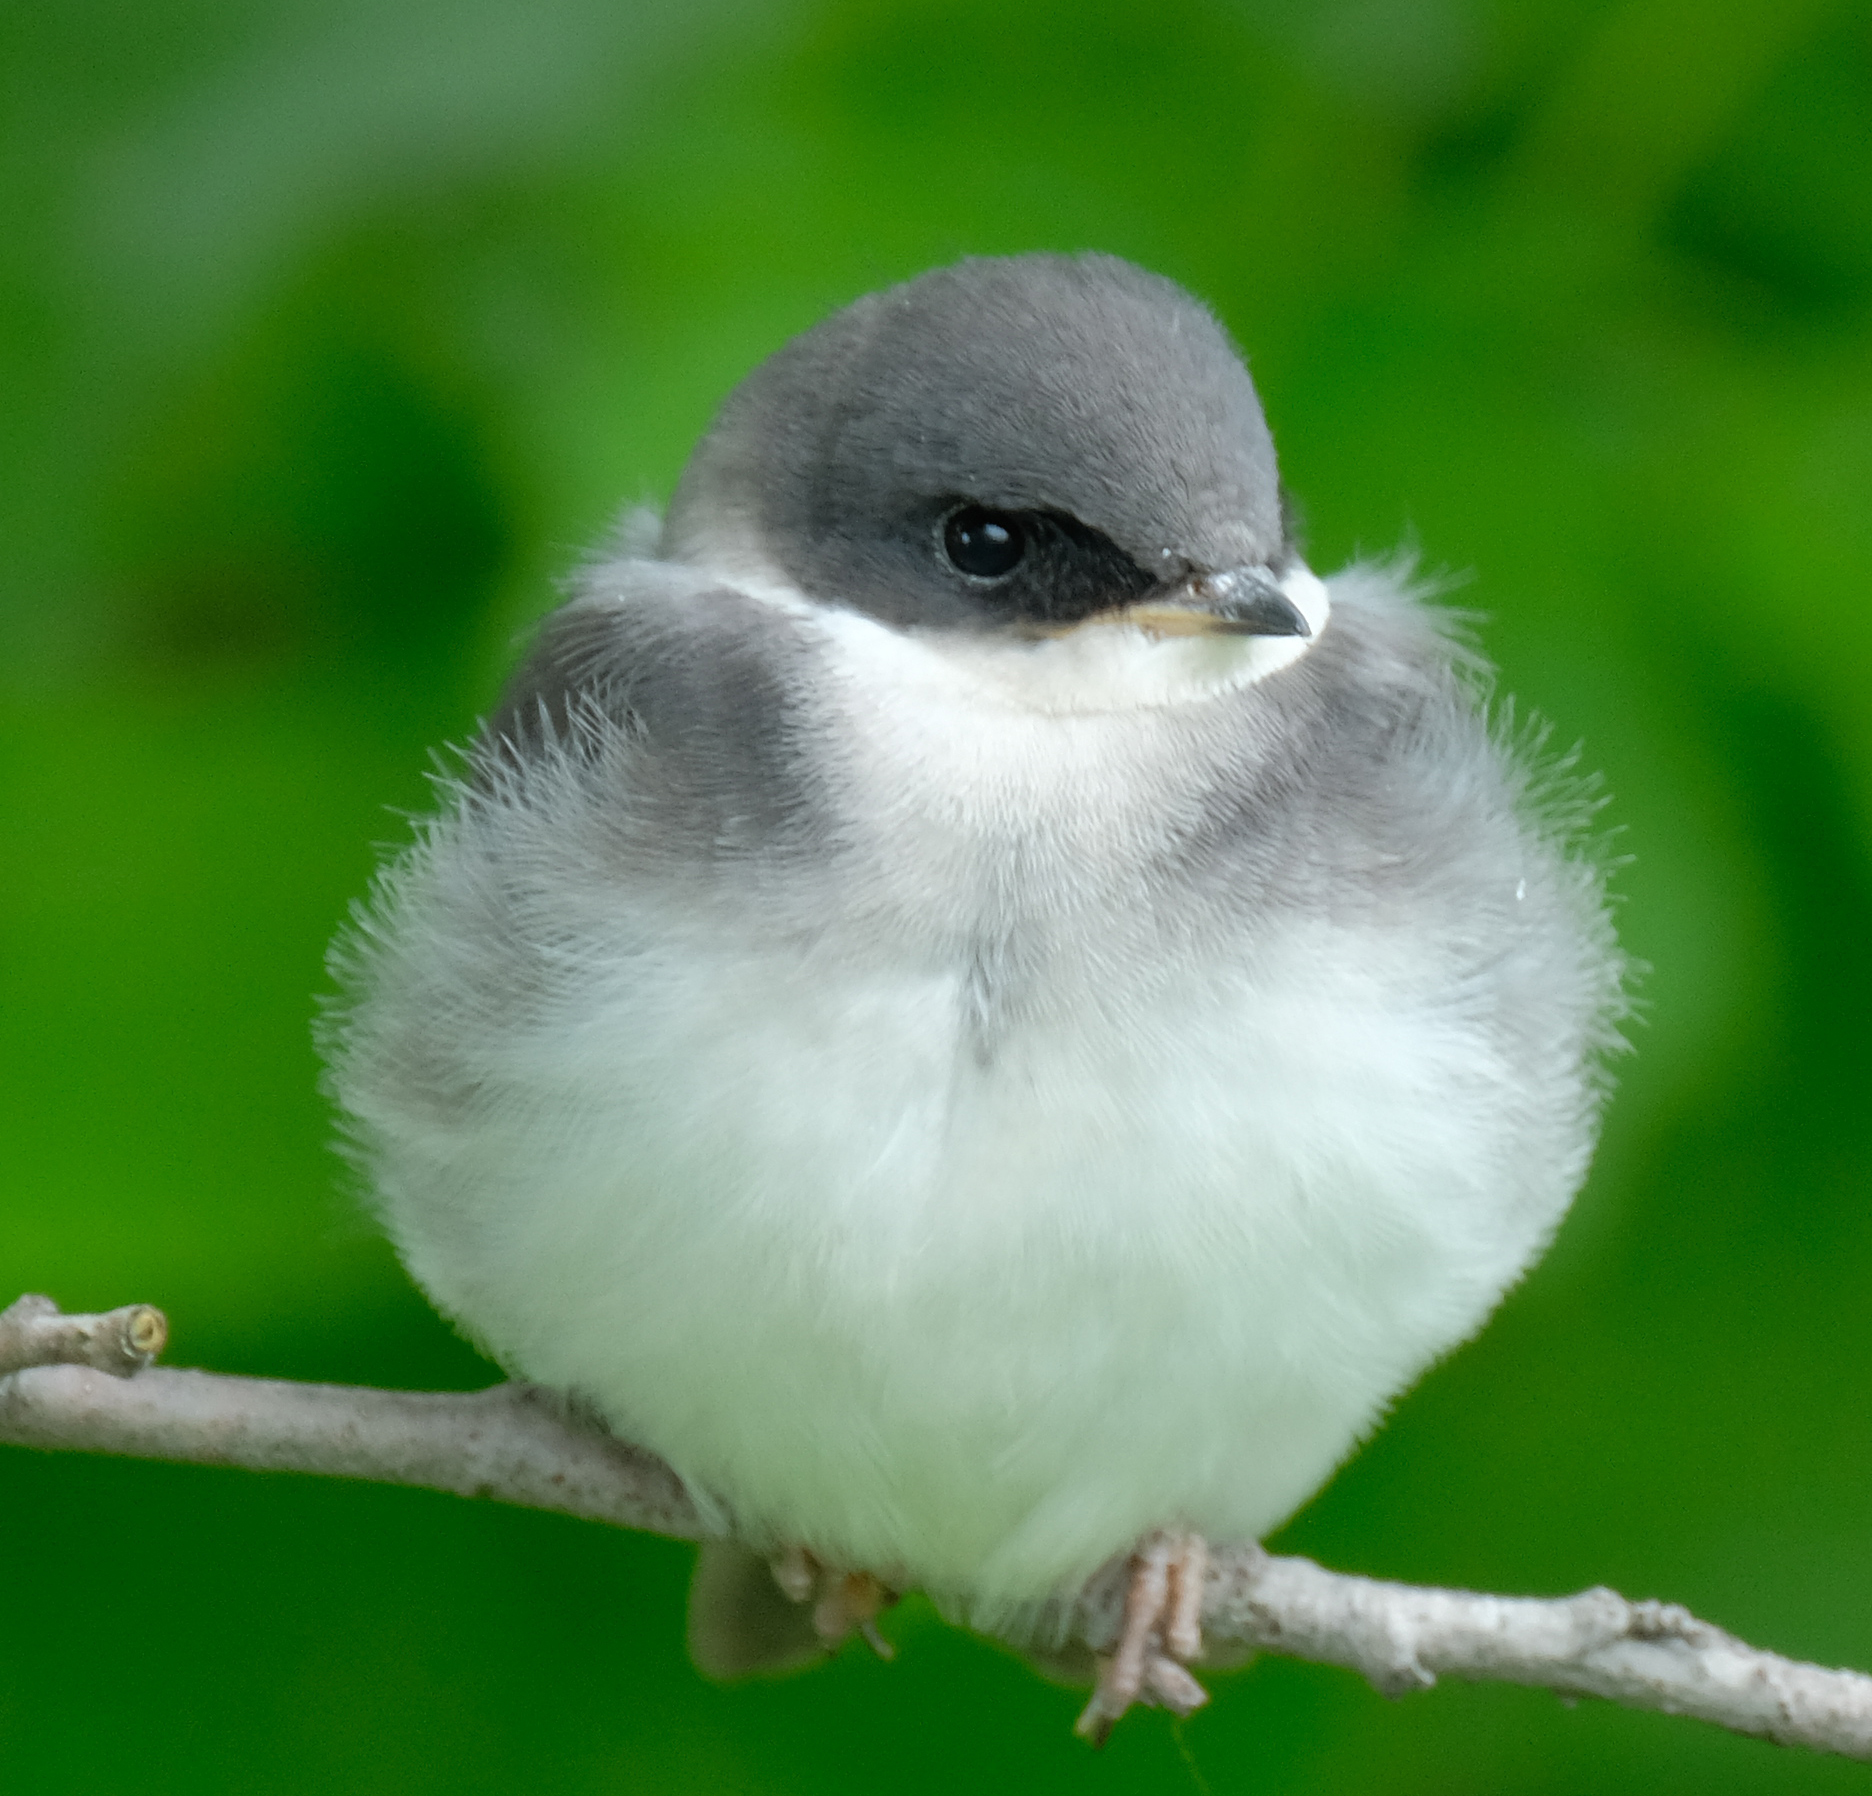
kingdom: Animalia
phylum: Chordata
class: Aves
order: Passeriformes
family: Hirundinidae
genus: Tachycineta
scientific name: Tachycineta bicolor
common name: Tree swallow
